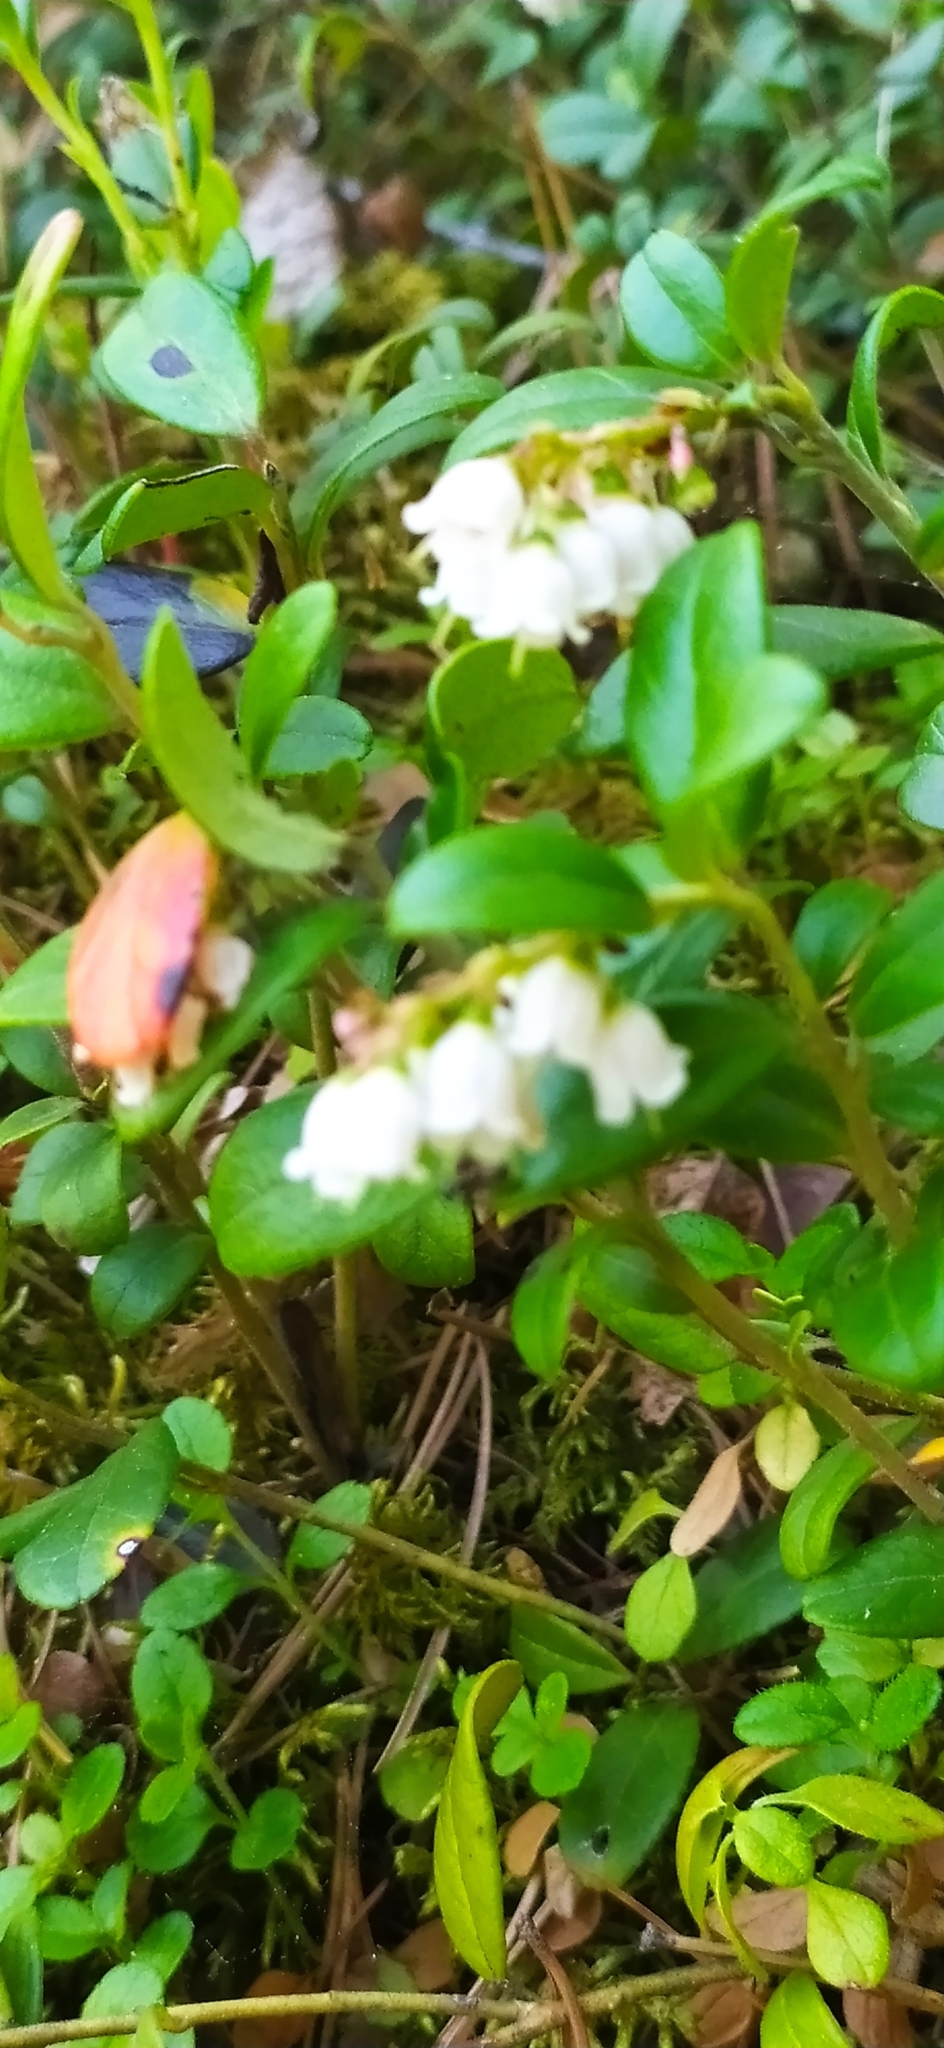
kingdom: Plantae
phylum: Tracheophyta
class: Magnoliopsida
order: Ericales
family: Ericaceae
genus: Vaccinium
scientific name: Vaccinium vitis-idaea
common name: Cowberry
